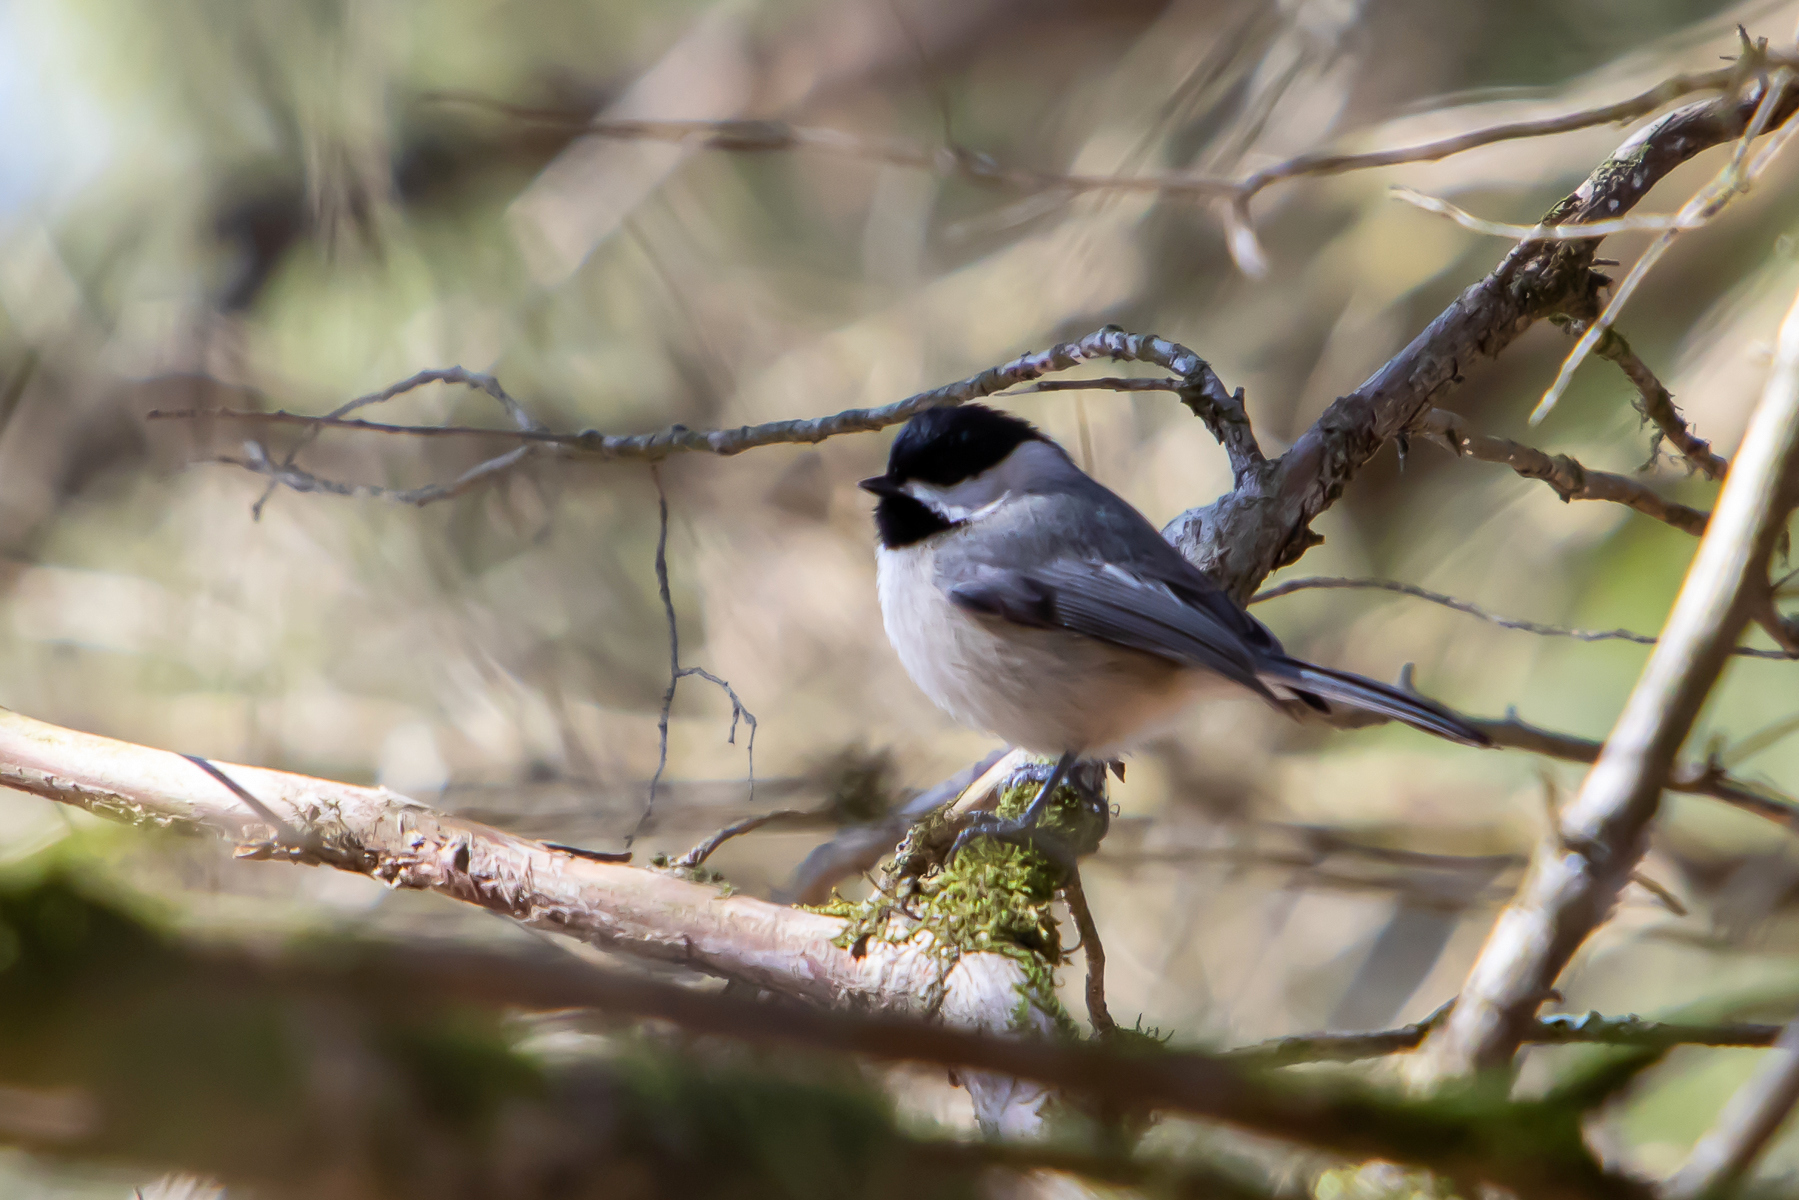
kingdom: Animalia
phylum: Chordata
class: Aves
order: Passeriformes
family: Paridae
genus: Poecile
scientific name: Poecile carolinensis
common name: Carolina chickadee
